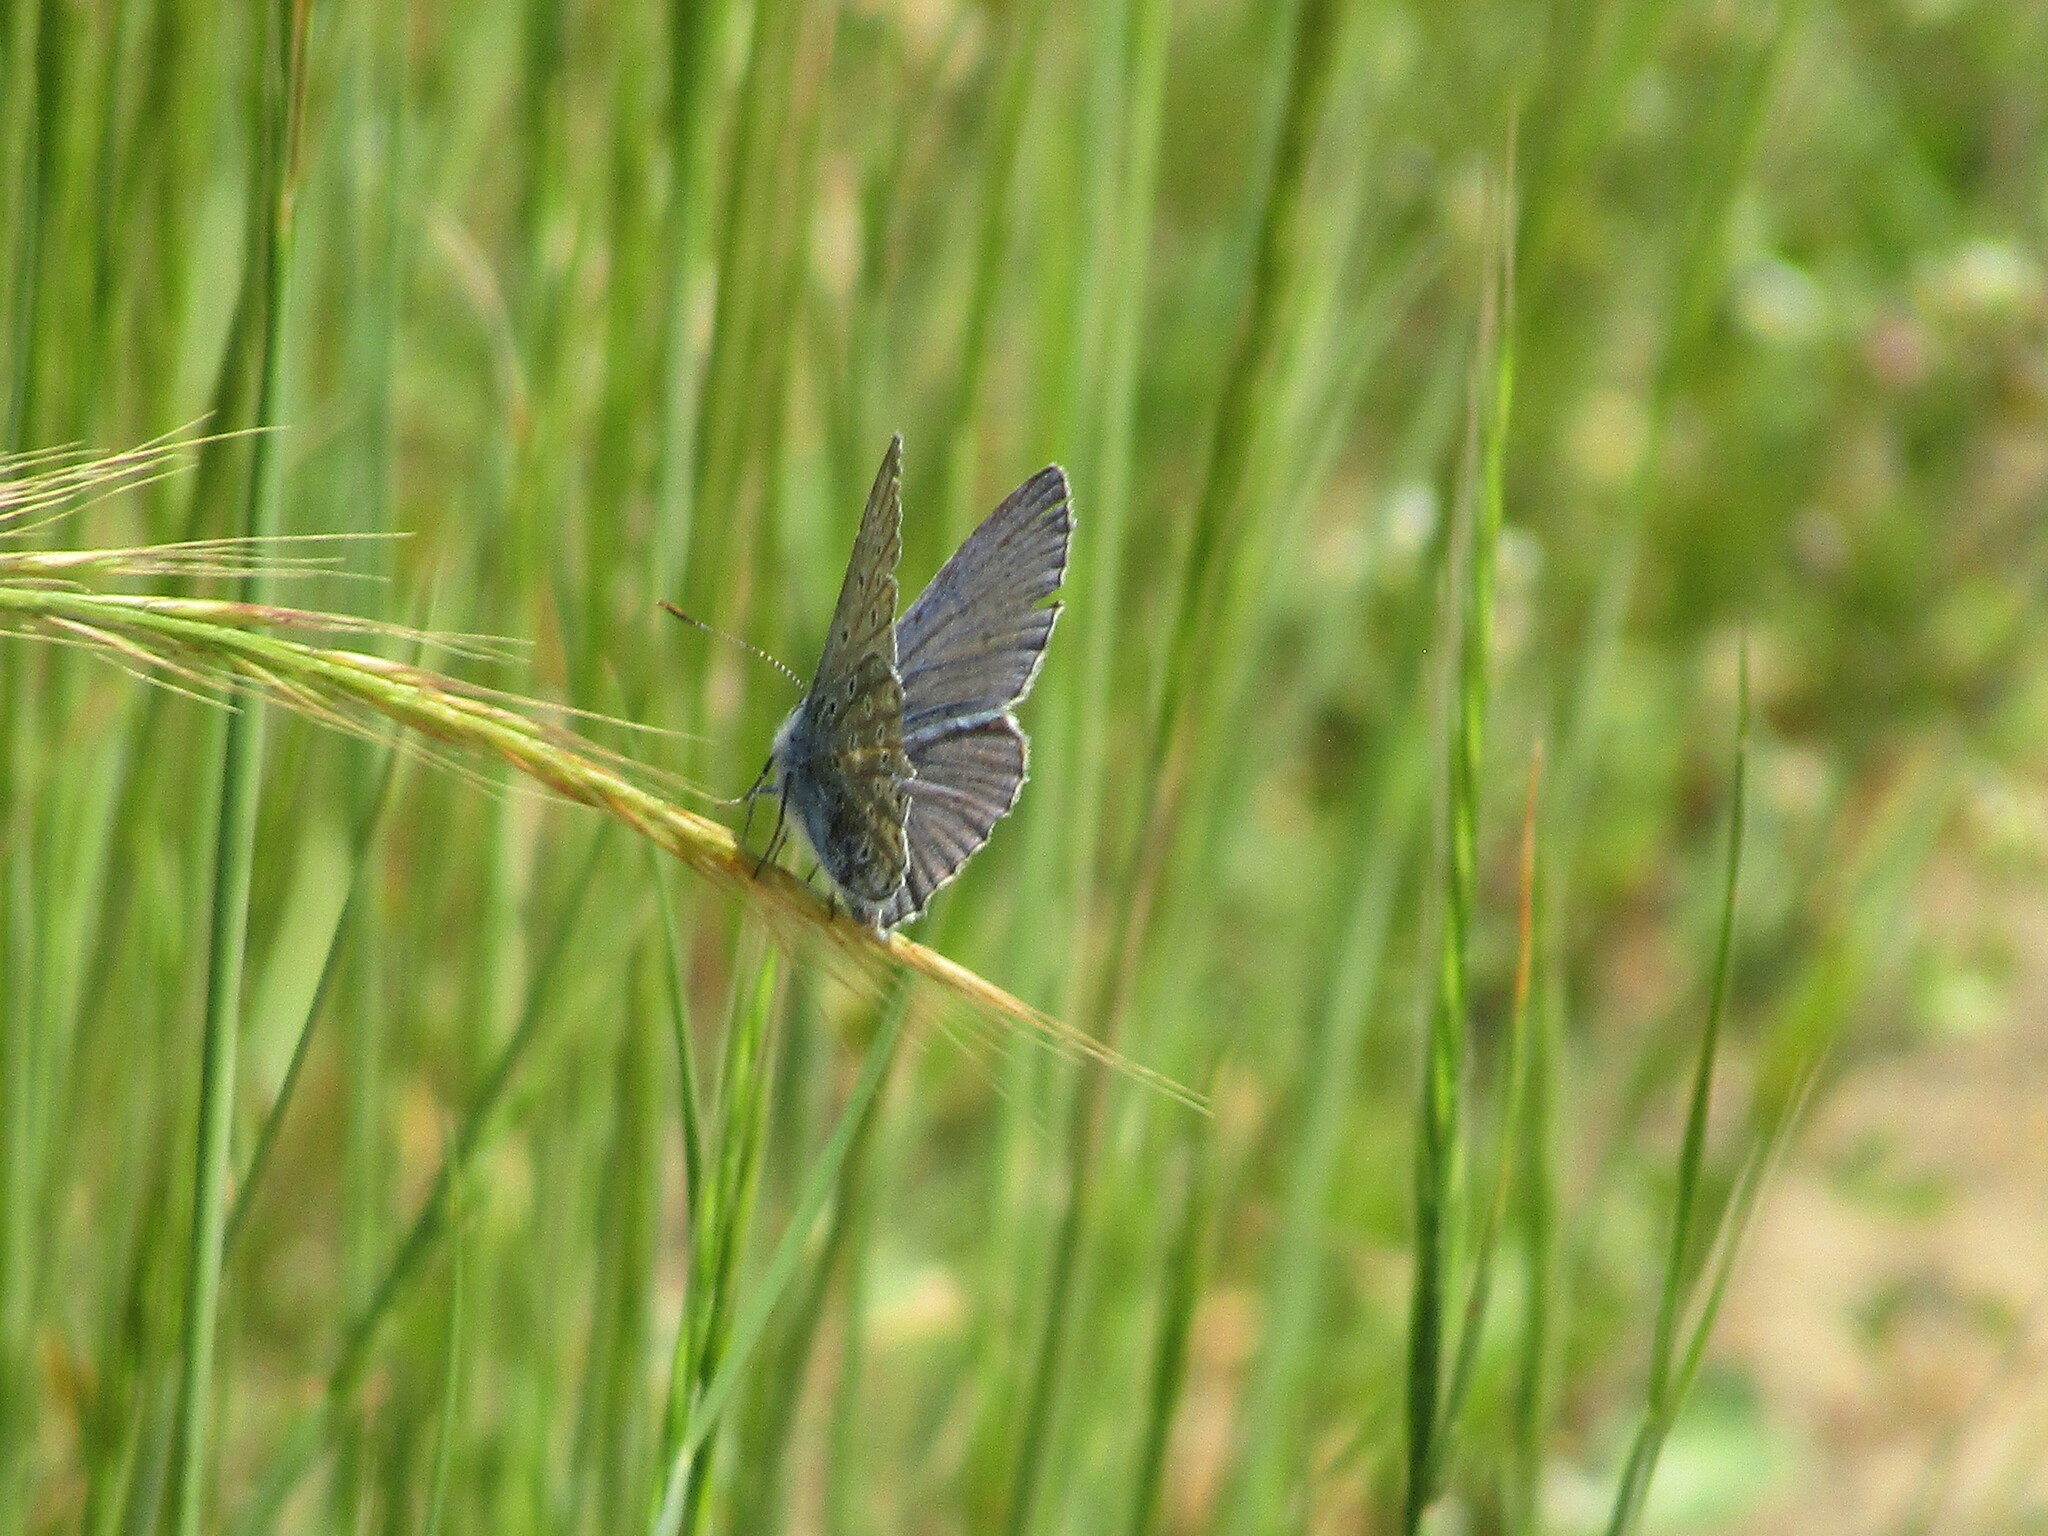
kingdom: Animalia
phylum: Arthropoda
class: Insecta
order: Lepidoptera
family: Lycaenidae
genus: Polyommatus
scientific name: Polyommatus icarus
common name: Common blue
